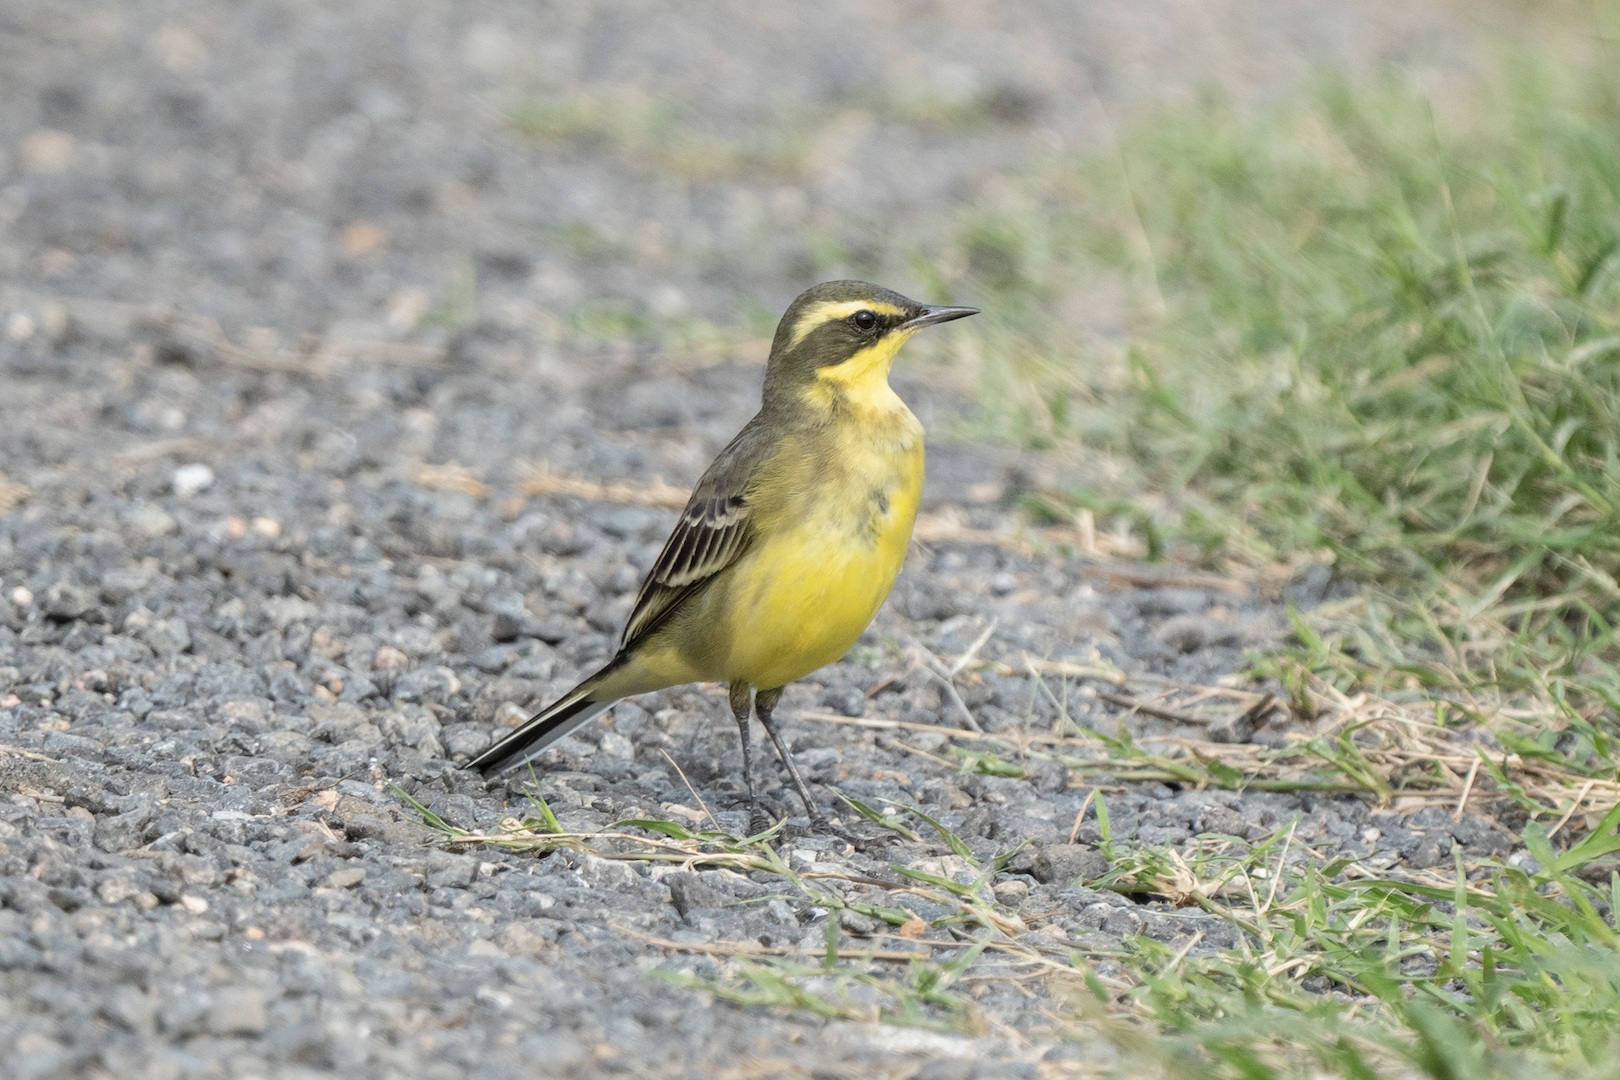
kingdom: Animalia
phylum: Chordata
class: Aves
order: Passeriformes
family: Motacillidae
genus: Motacilla
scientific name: Motacilla tschutschensis
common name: Eastern yellow wagtail
